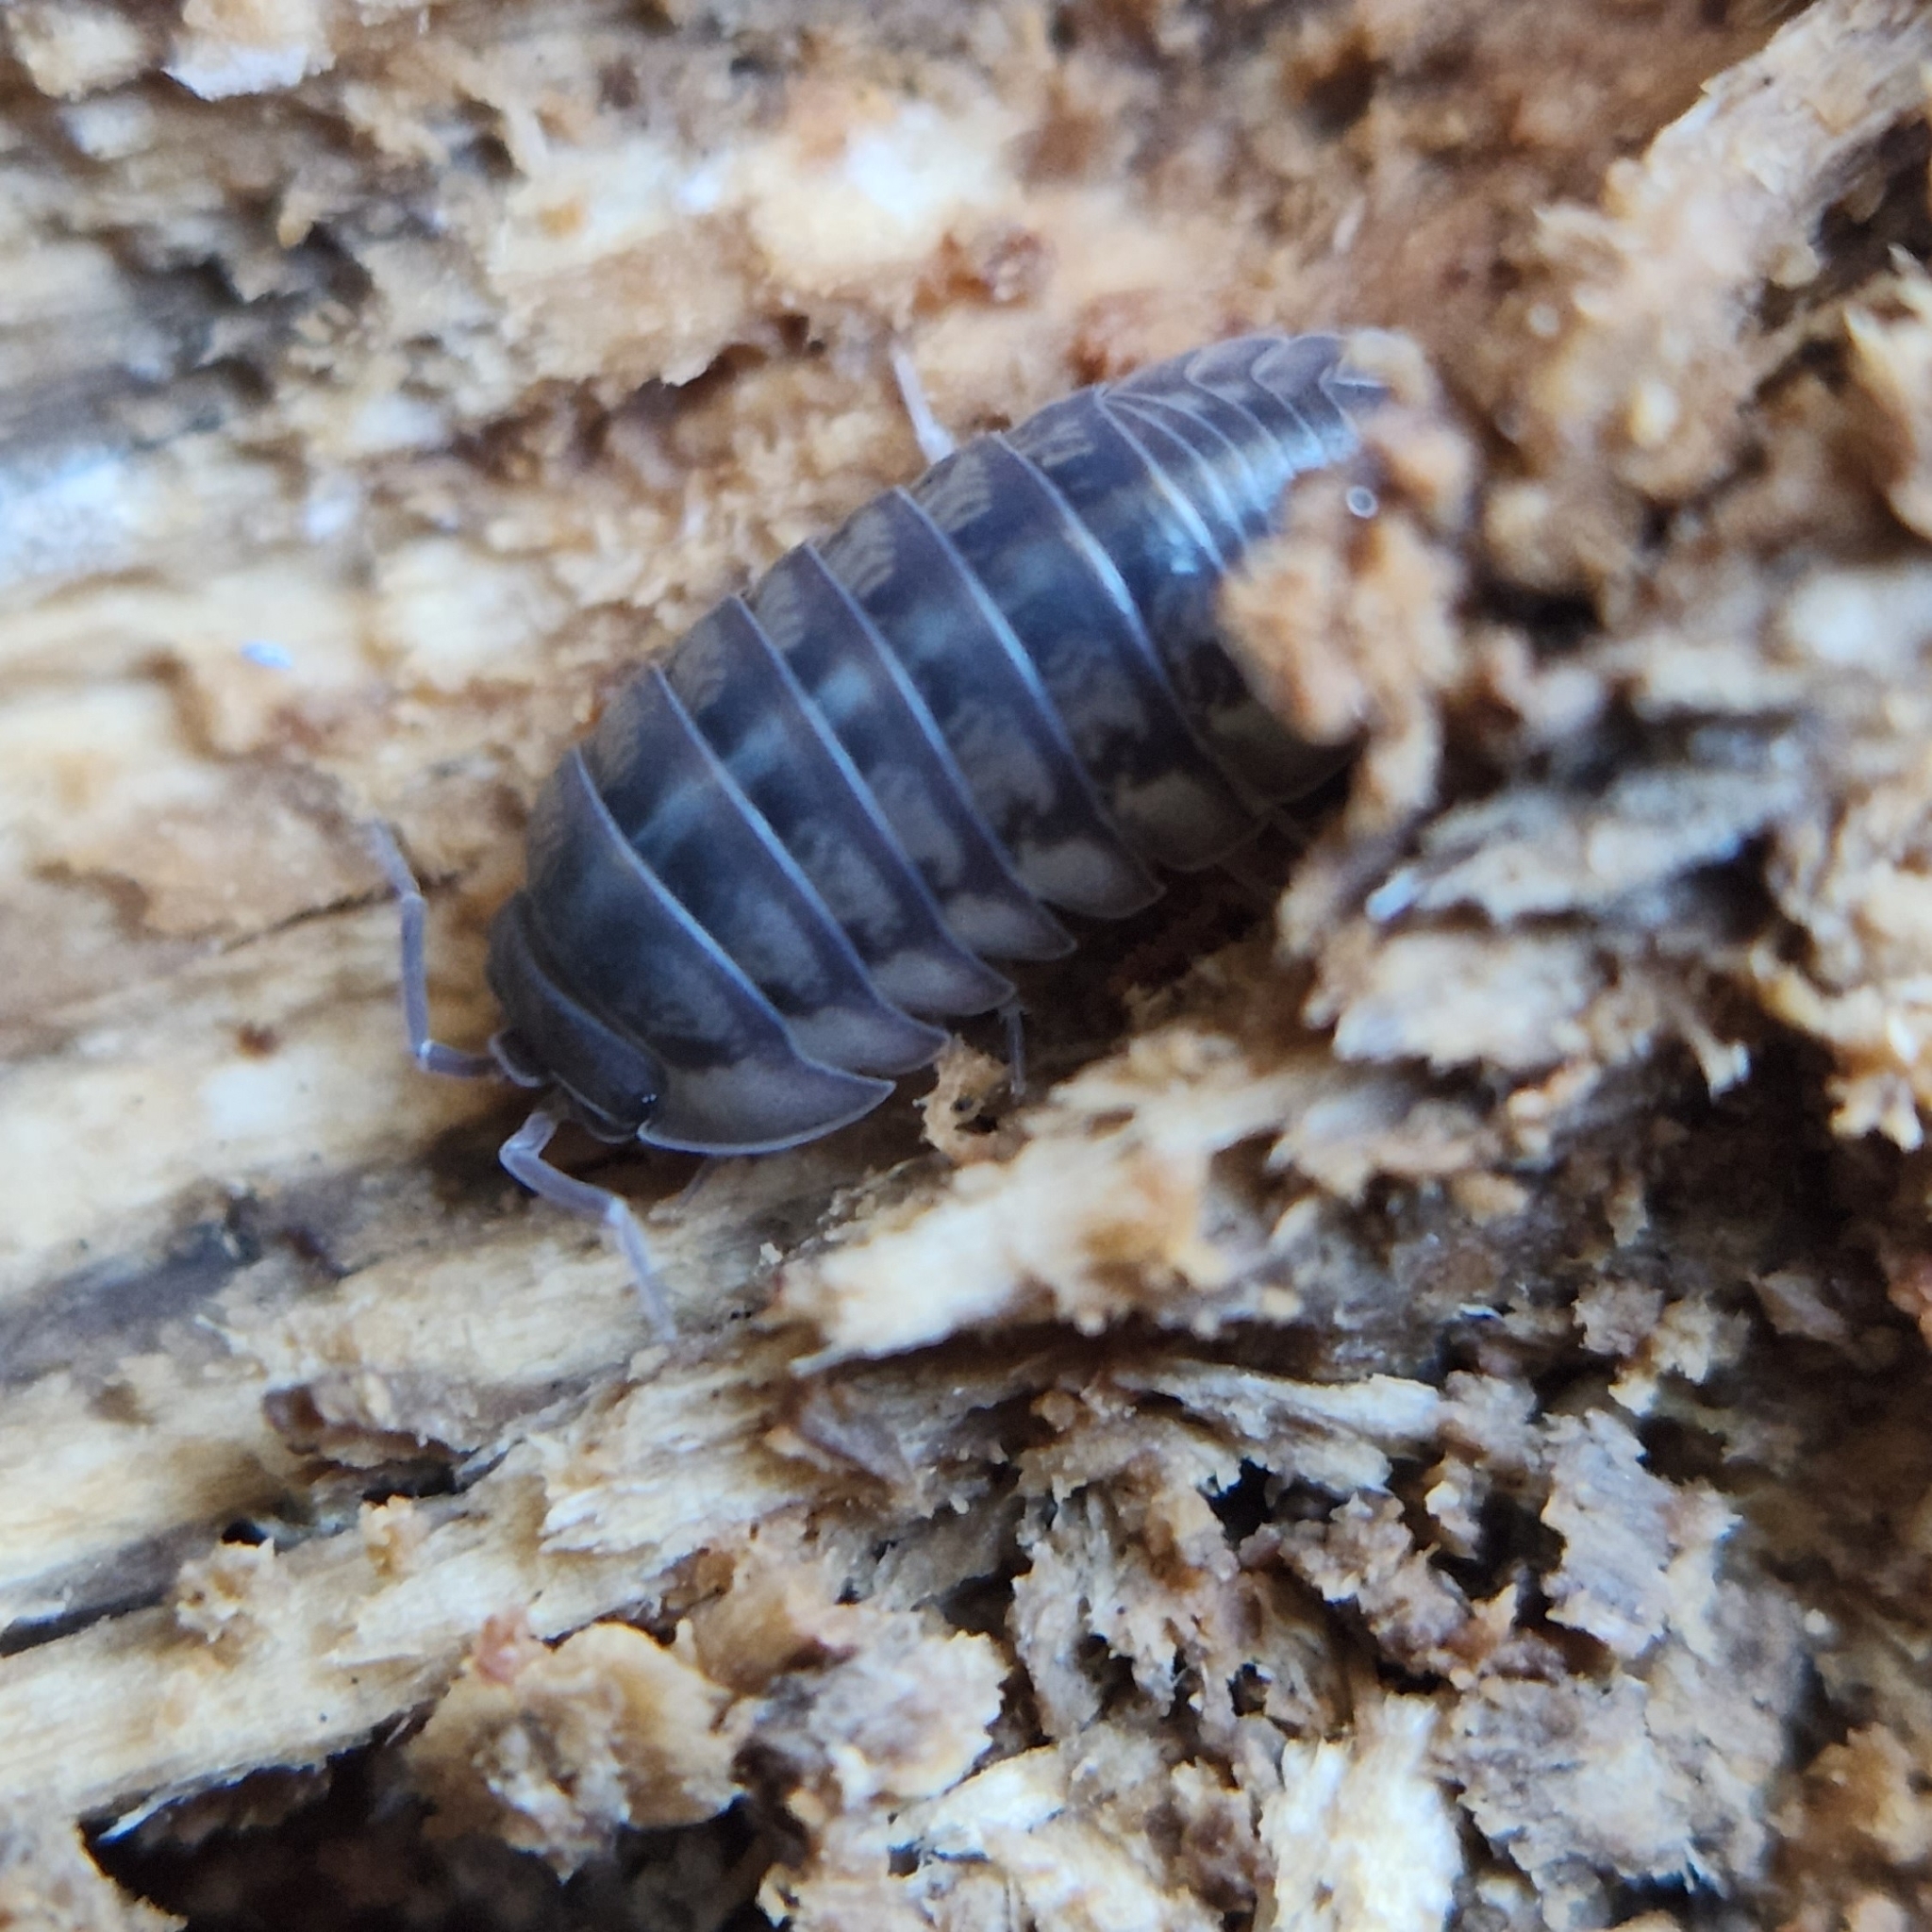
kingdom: Animalia
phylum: Arthropoda
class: Malacostraca
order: Isopoda
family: Armadillidiidae
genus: Armadillidium
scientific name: Armadillidium nasatum
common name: Isopod
